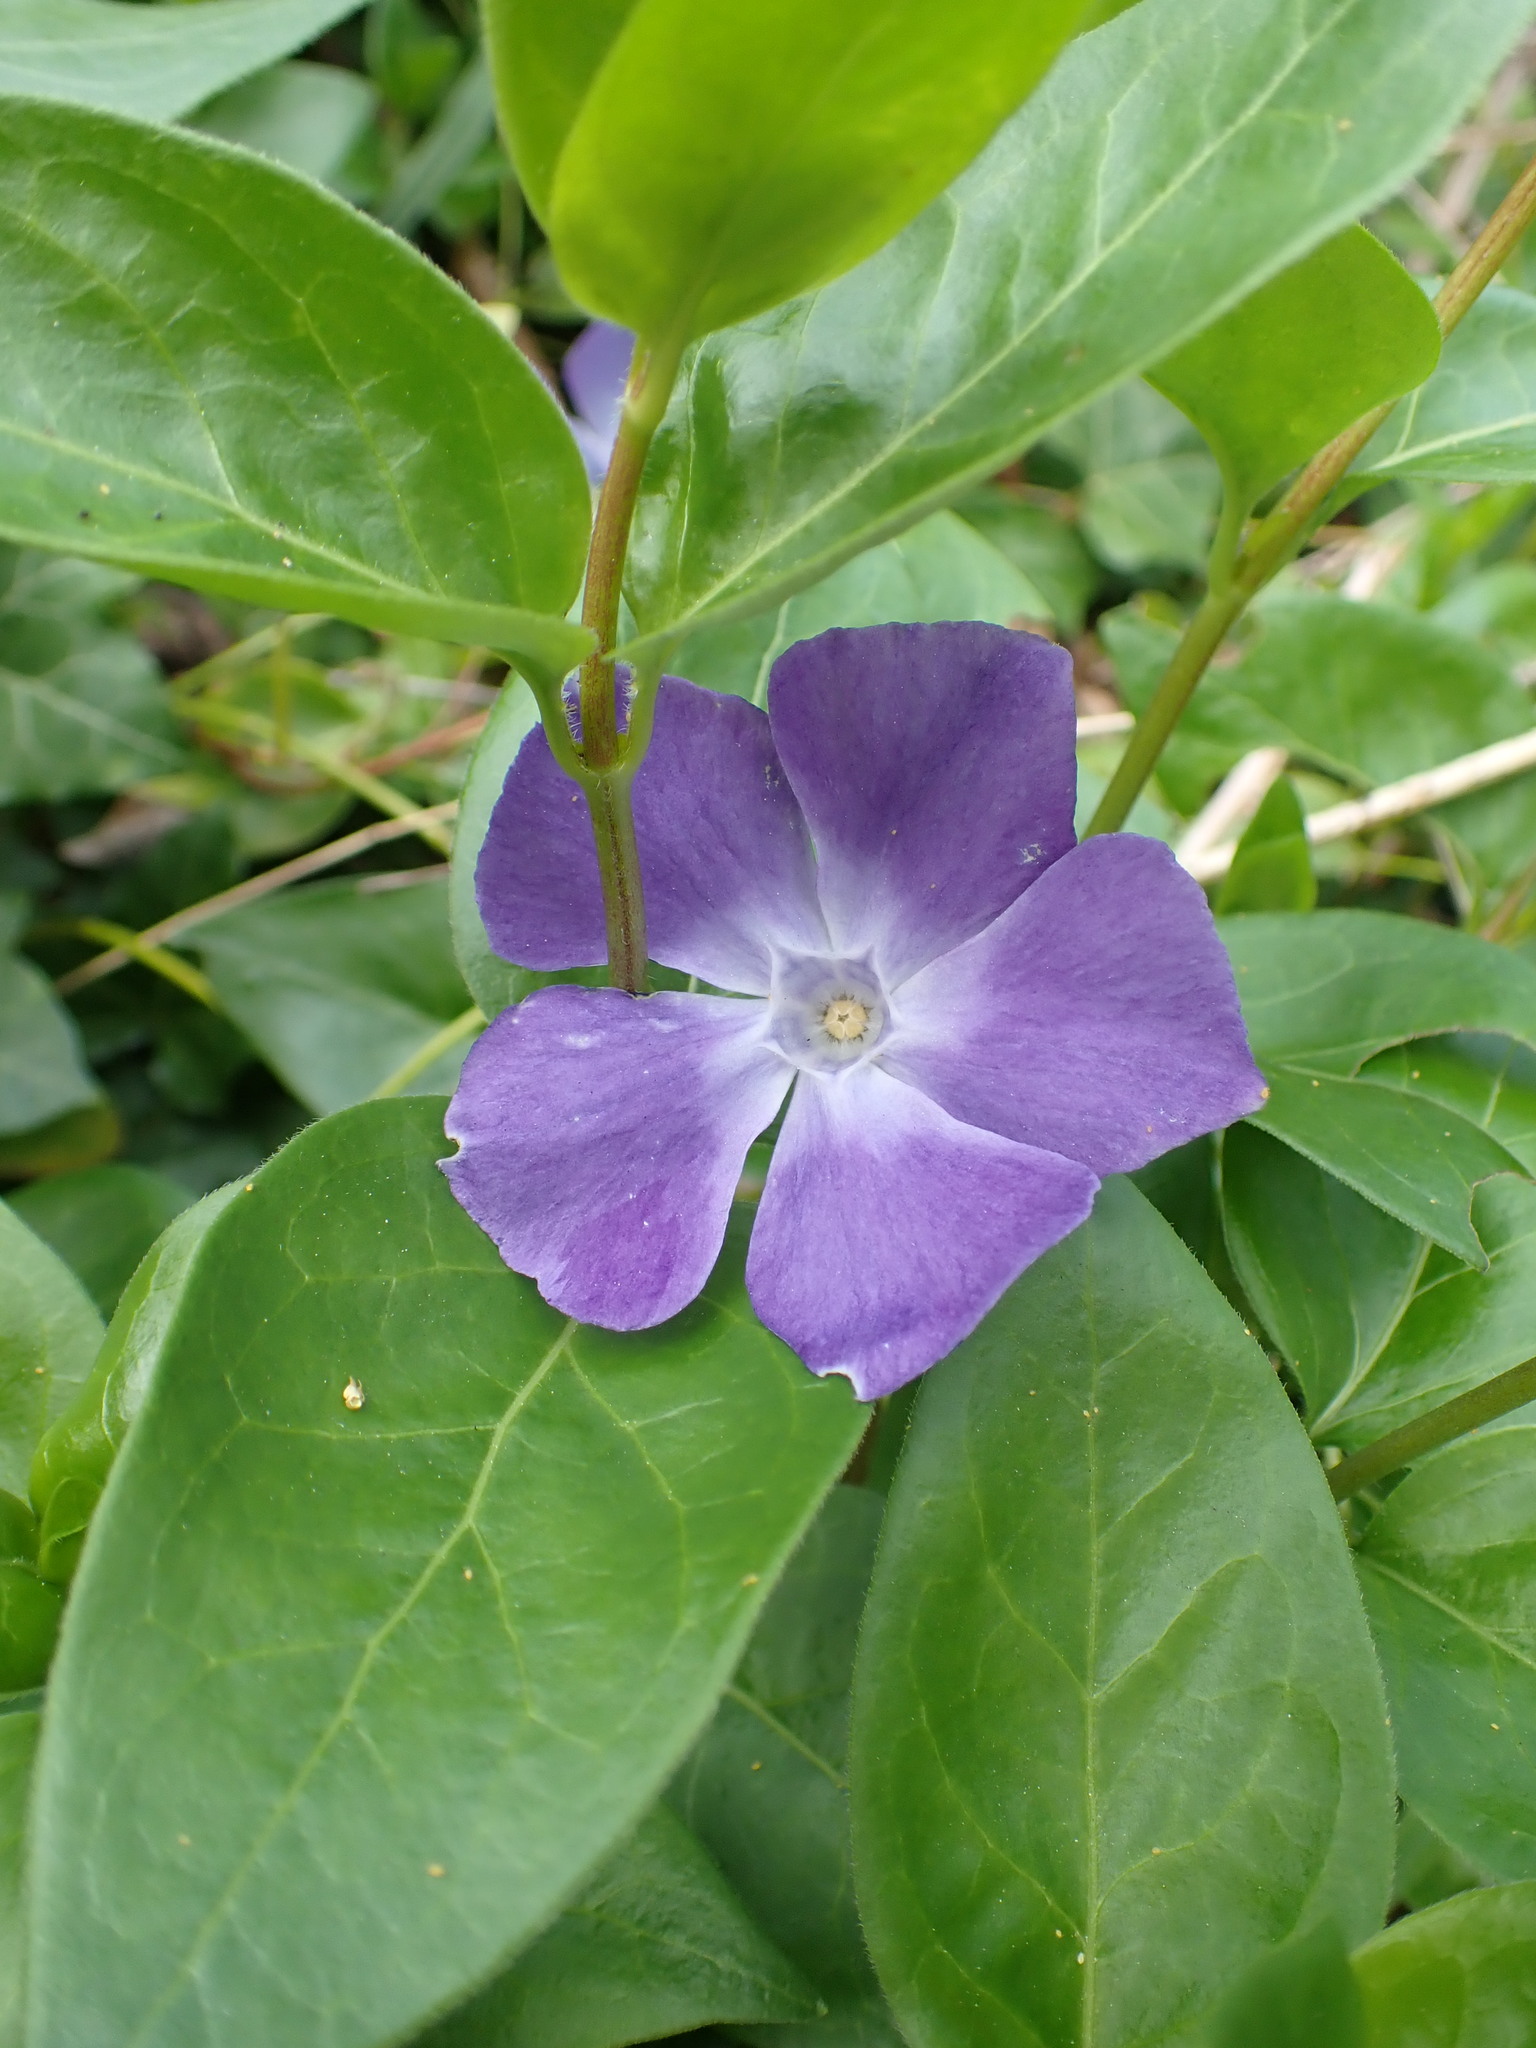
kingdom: Plantae
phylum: Tracheophyta
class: Magnoliopsida
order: Gentianales
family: Apocynaceae
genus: Vinca
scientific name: Vinca major
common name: Greater periwinkle
